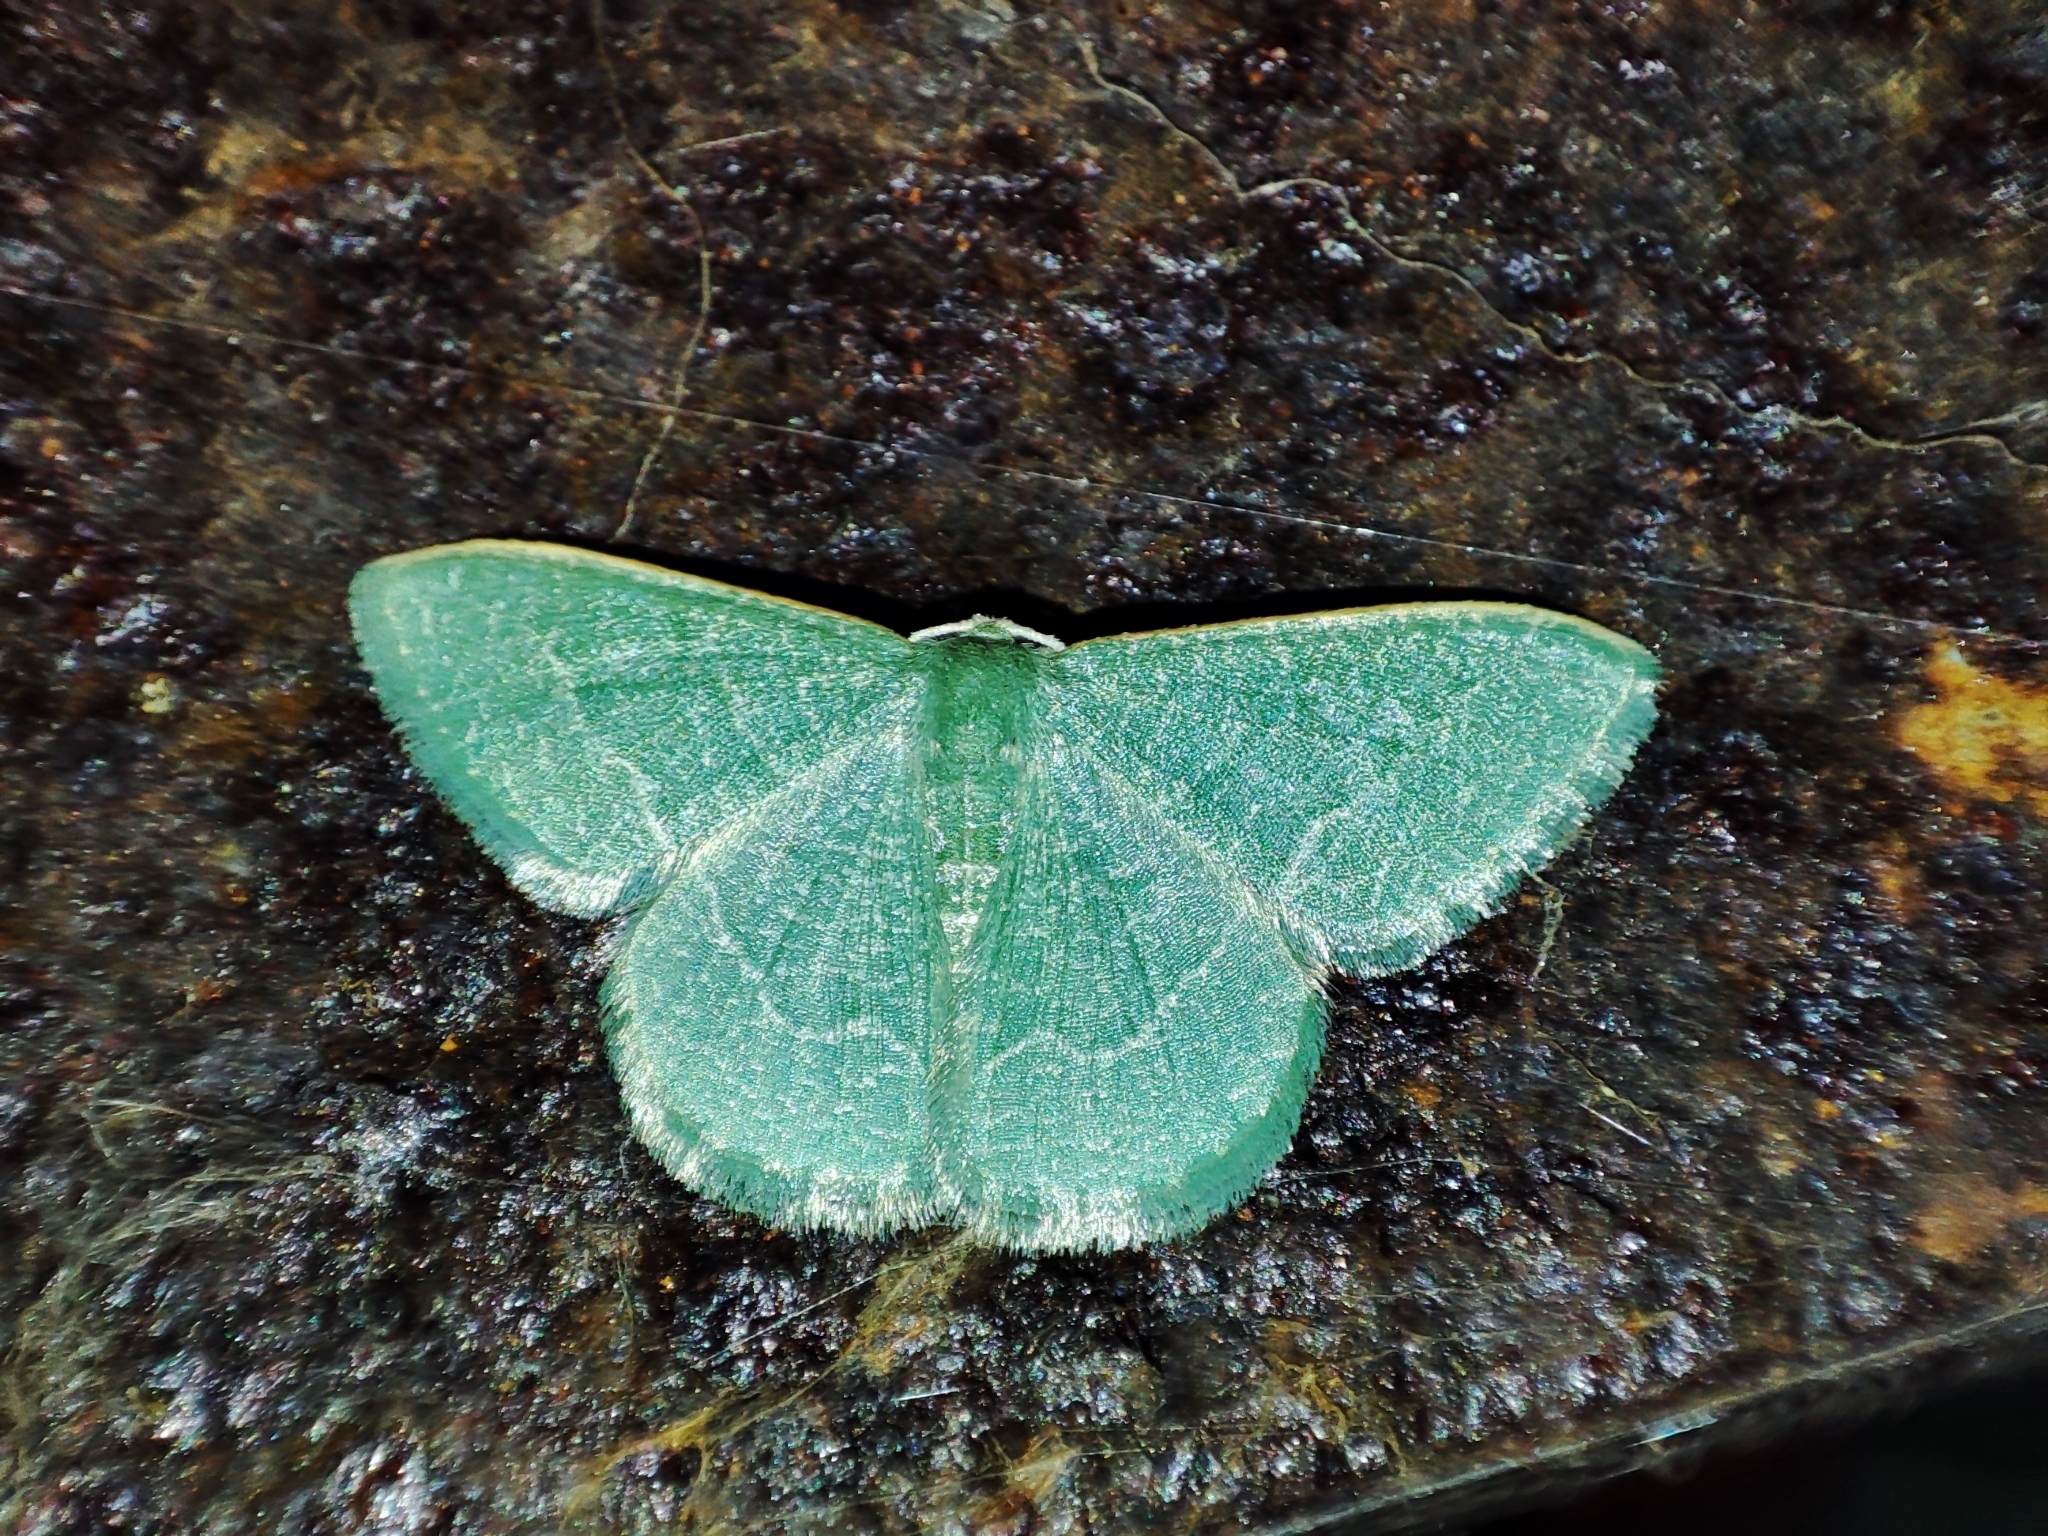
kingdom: Animalia
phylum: Arthropoda
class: Insecta
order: Lepidoptera
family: Geometridae
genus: Chlorissa
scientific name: Chlorissa etruscaria
